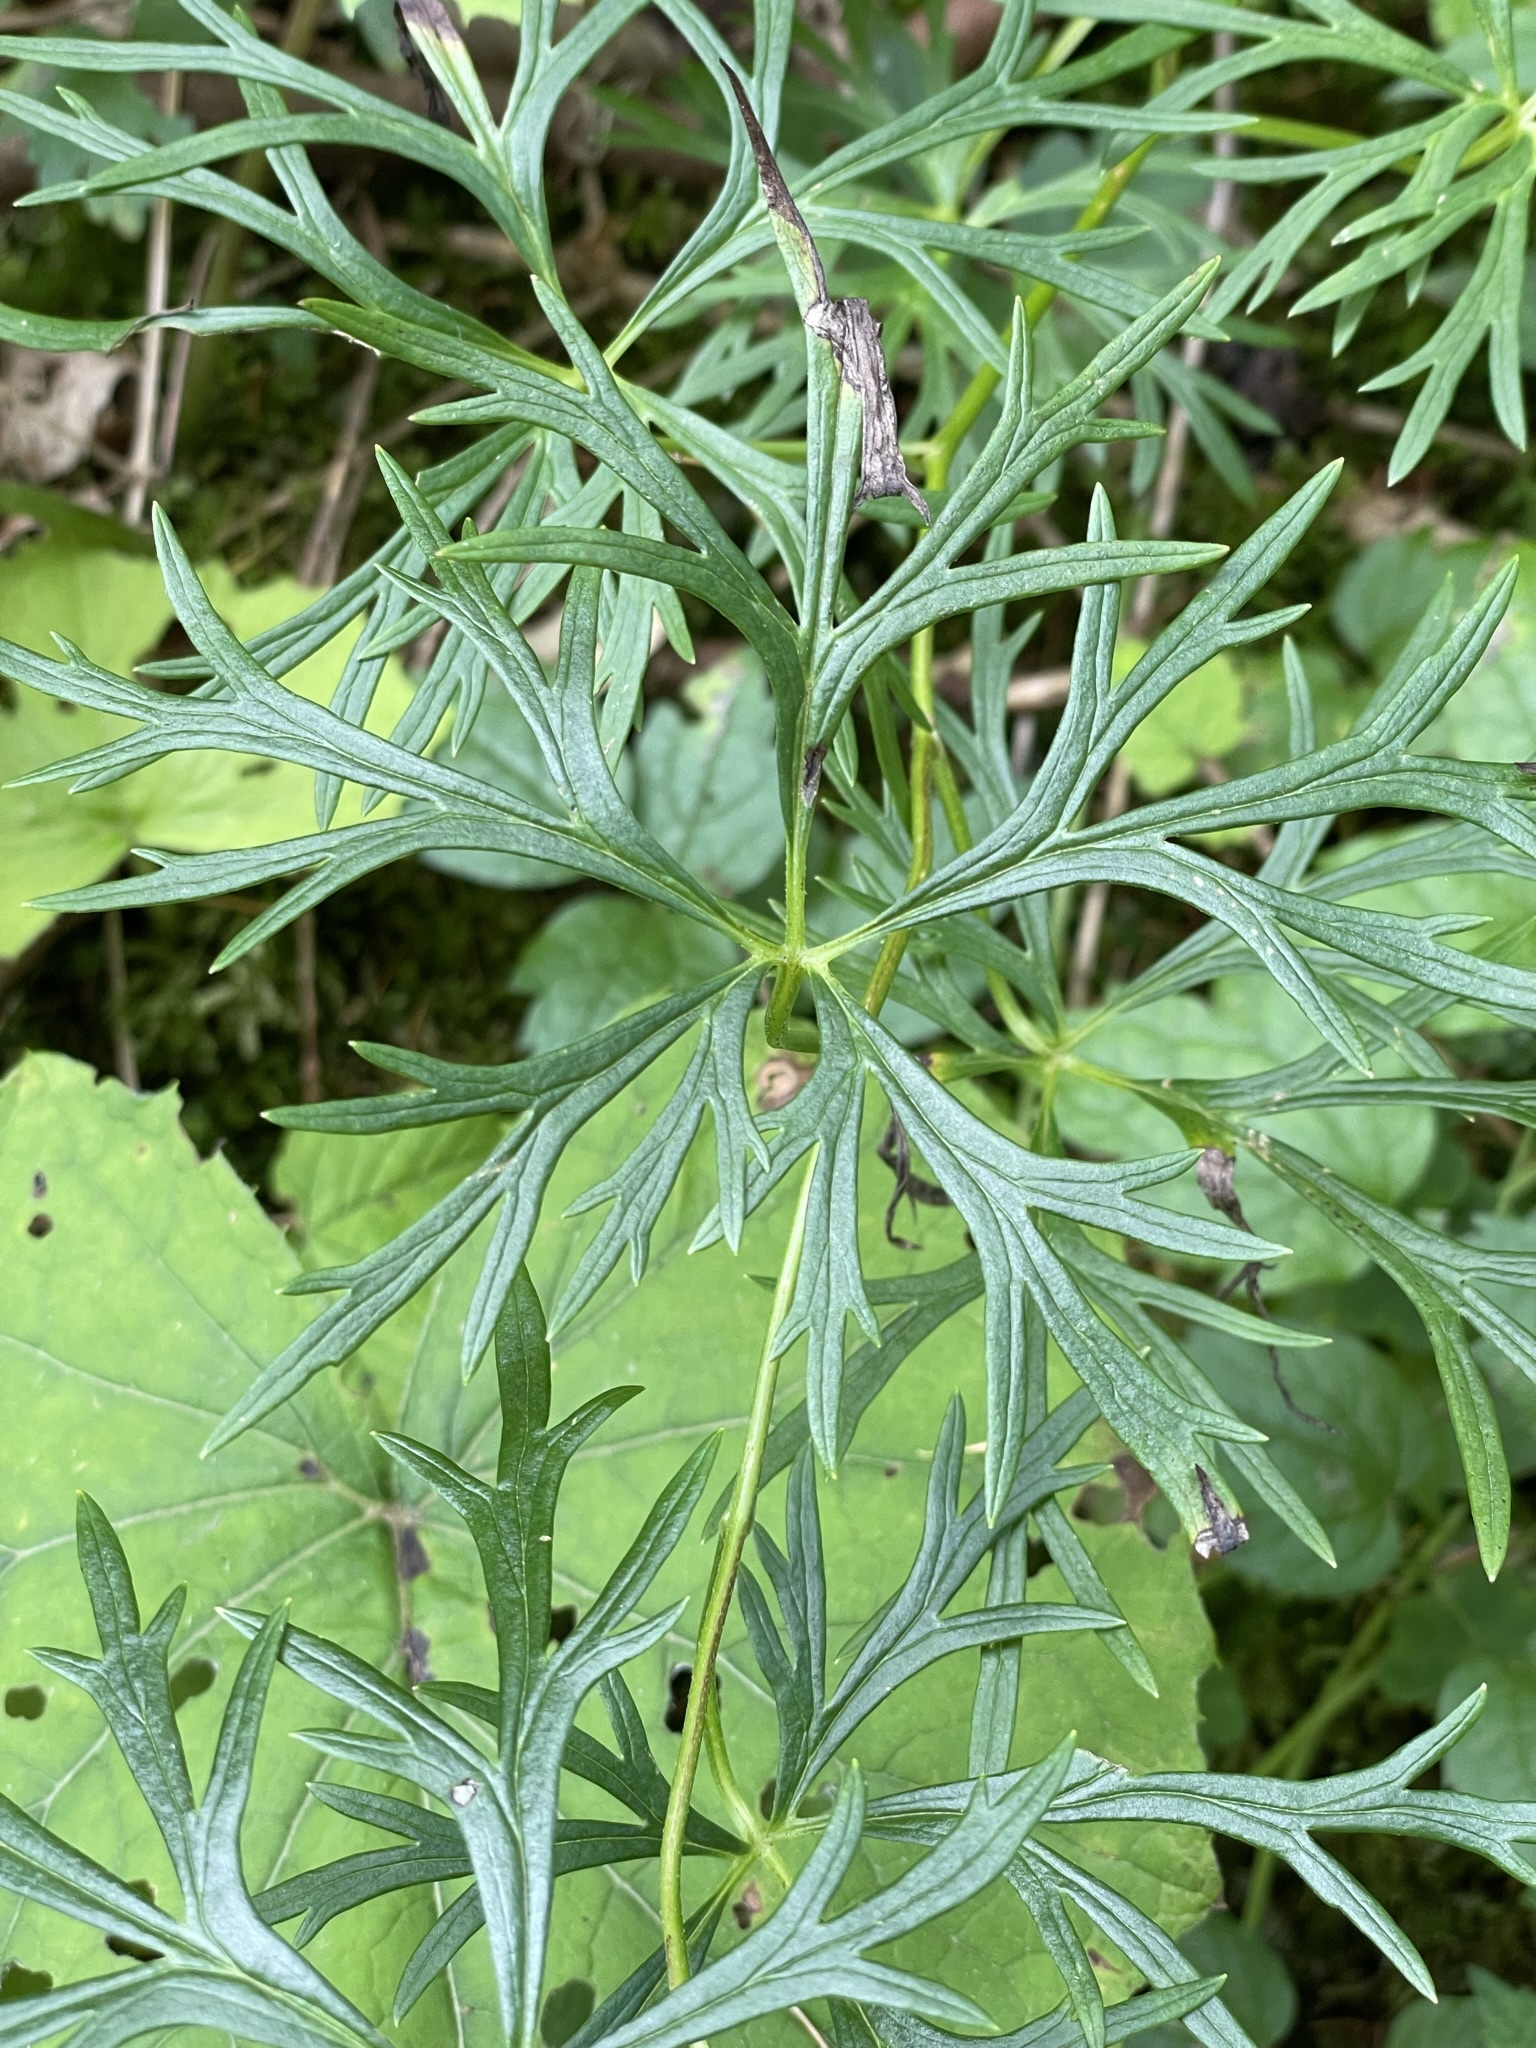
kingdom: Plantae
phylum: Tracheophyta
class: Magnoliopsida
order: Ranunculales
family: Ranunculaceae
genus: Aconitum
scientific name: Aconitum pilipes
